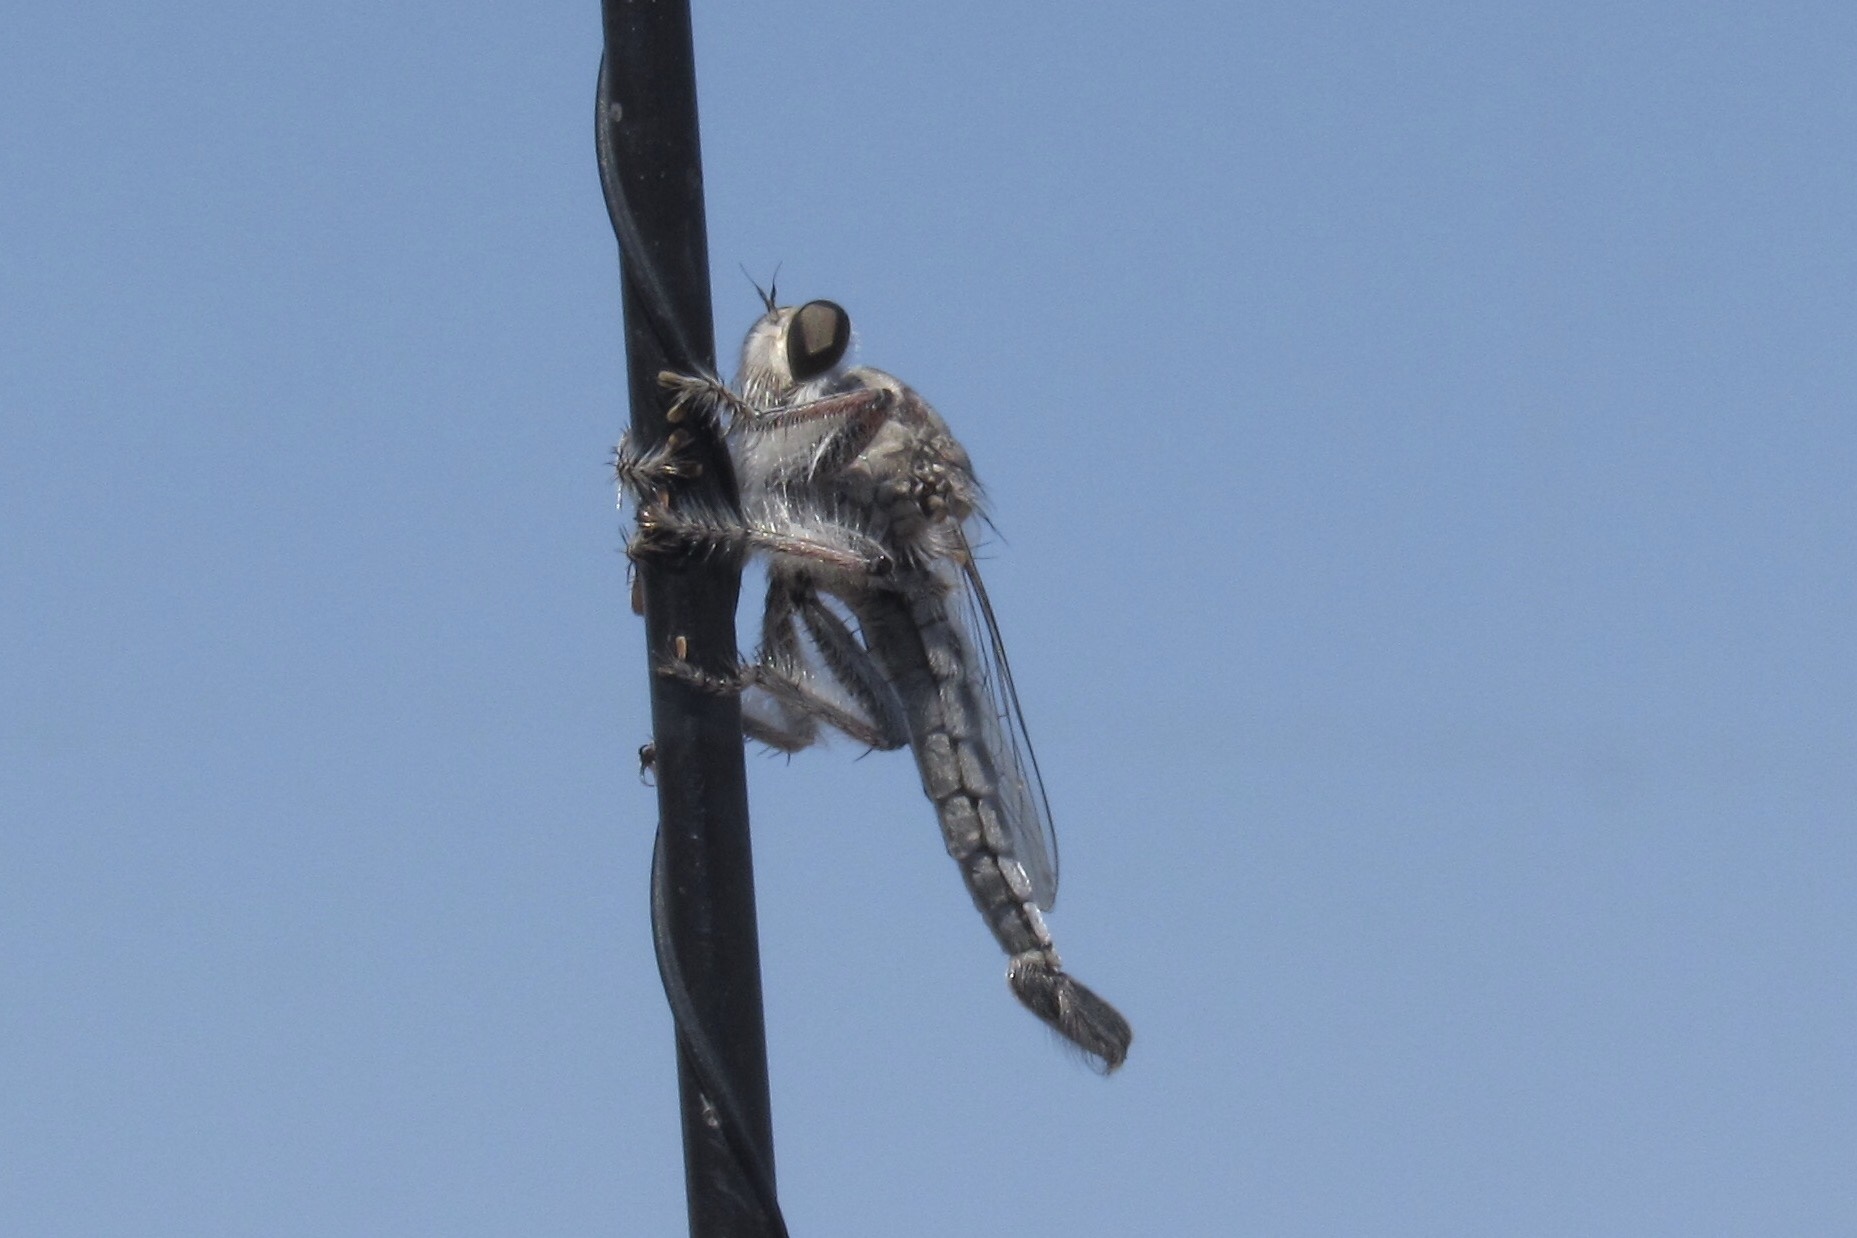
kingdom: Animalia
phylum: Arthropoda
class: Insecta
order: Diptera
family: Asilidae
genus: Efferia
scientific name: Efferia tricella
